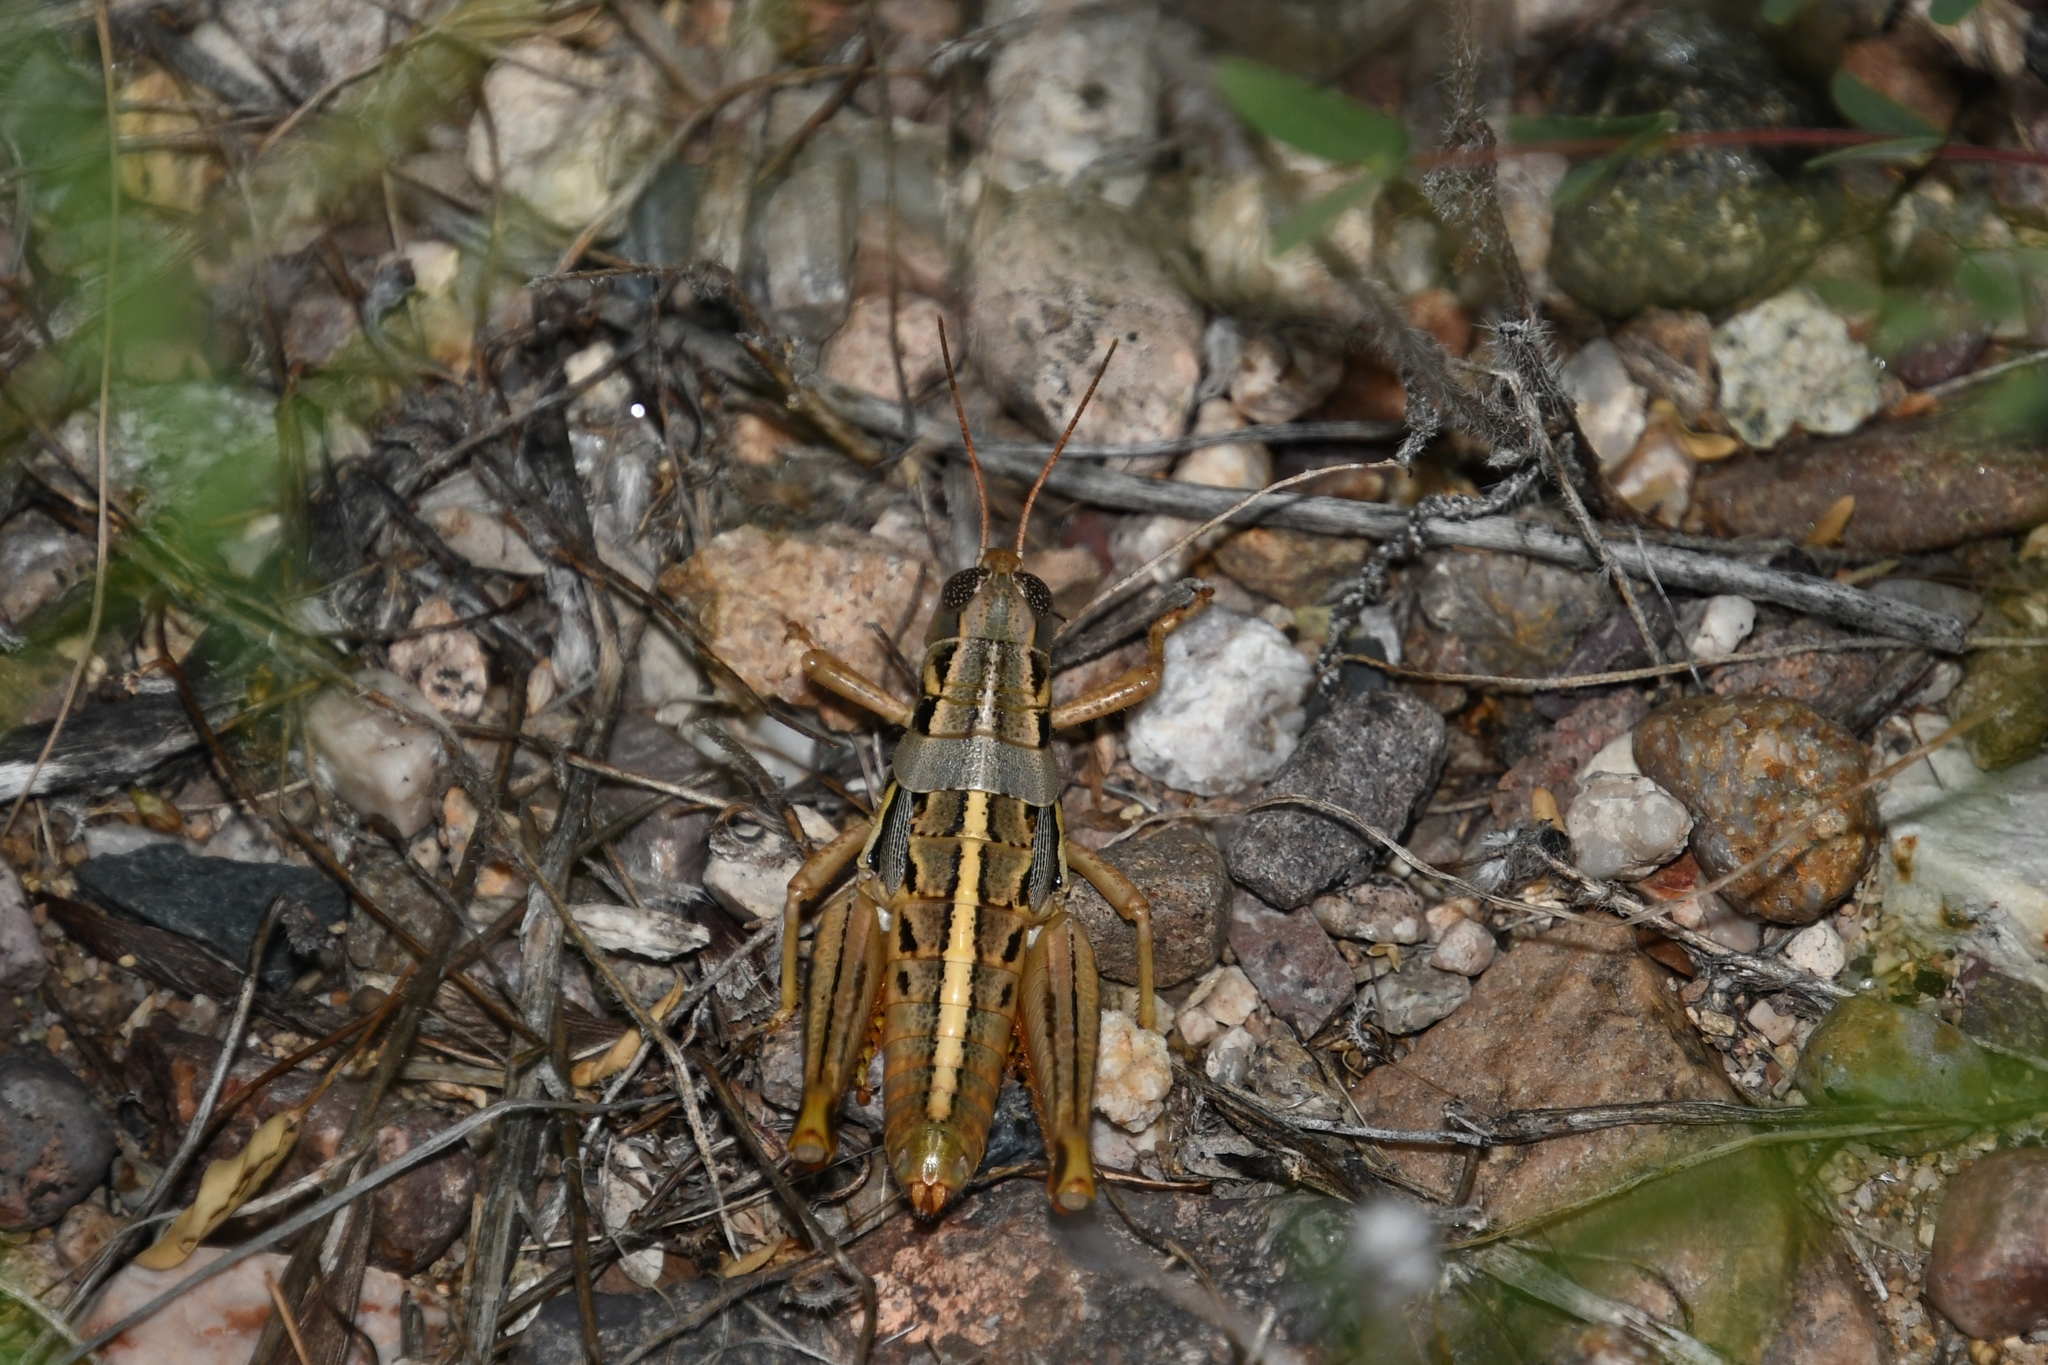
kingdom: Animalia
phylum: Arthropoda
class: Insecta
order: Orthoptera
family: Acrididae
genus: Barytettix
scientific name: Barytettix humphreysii
